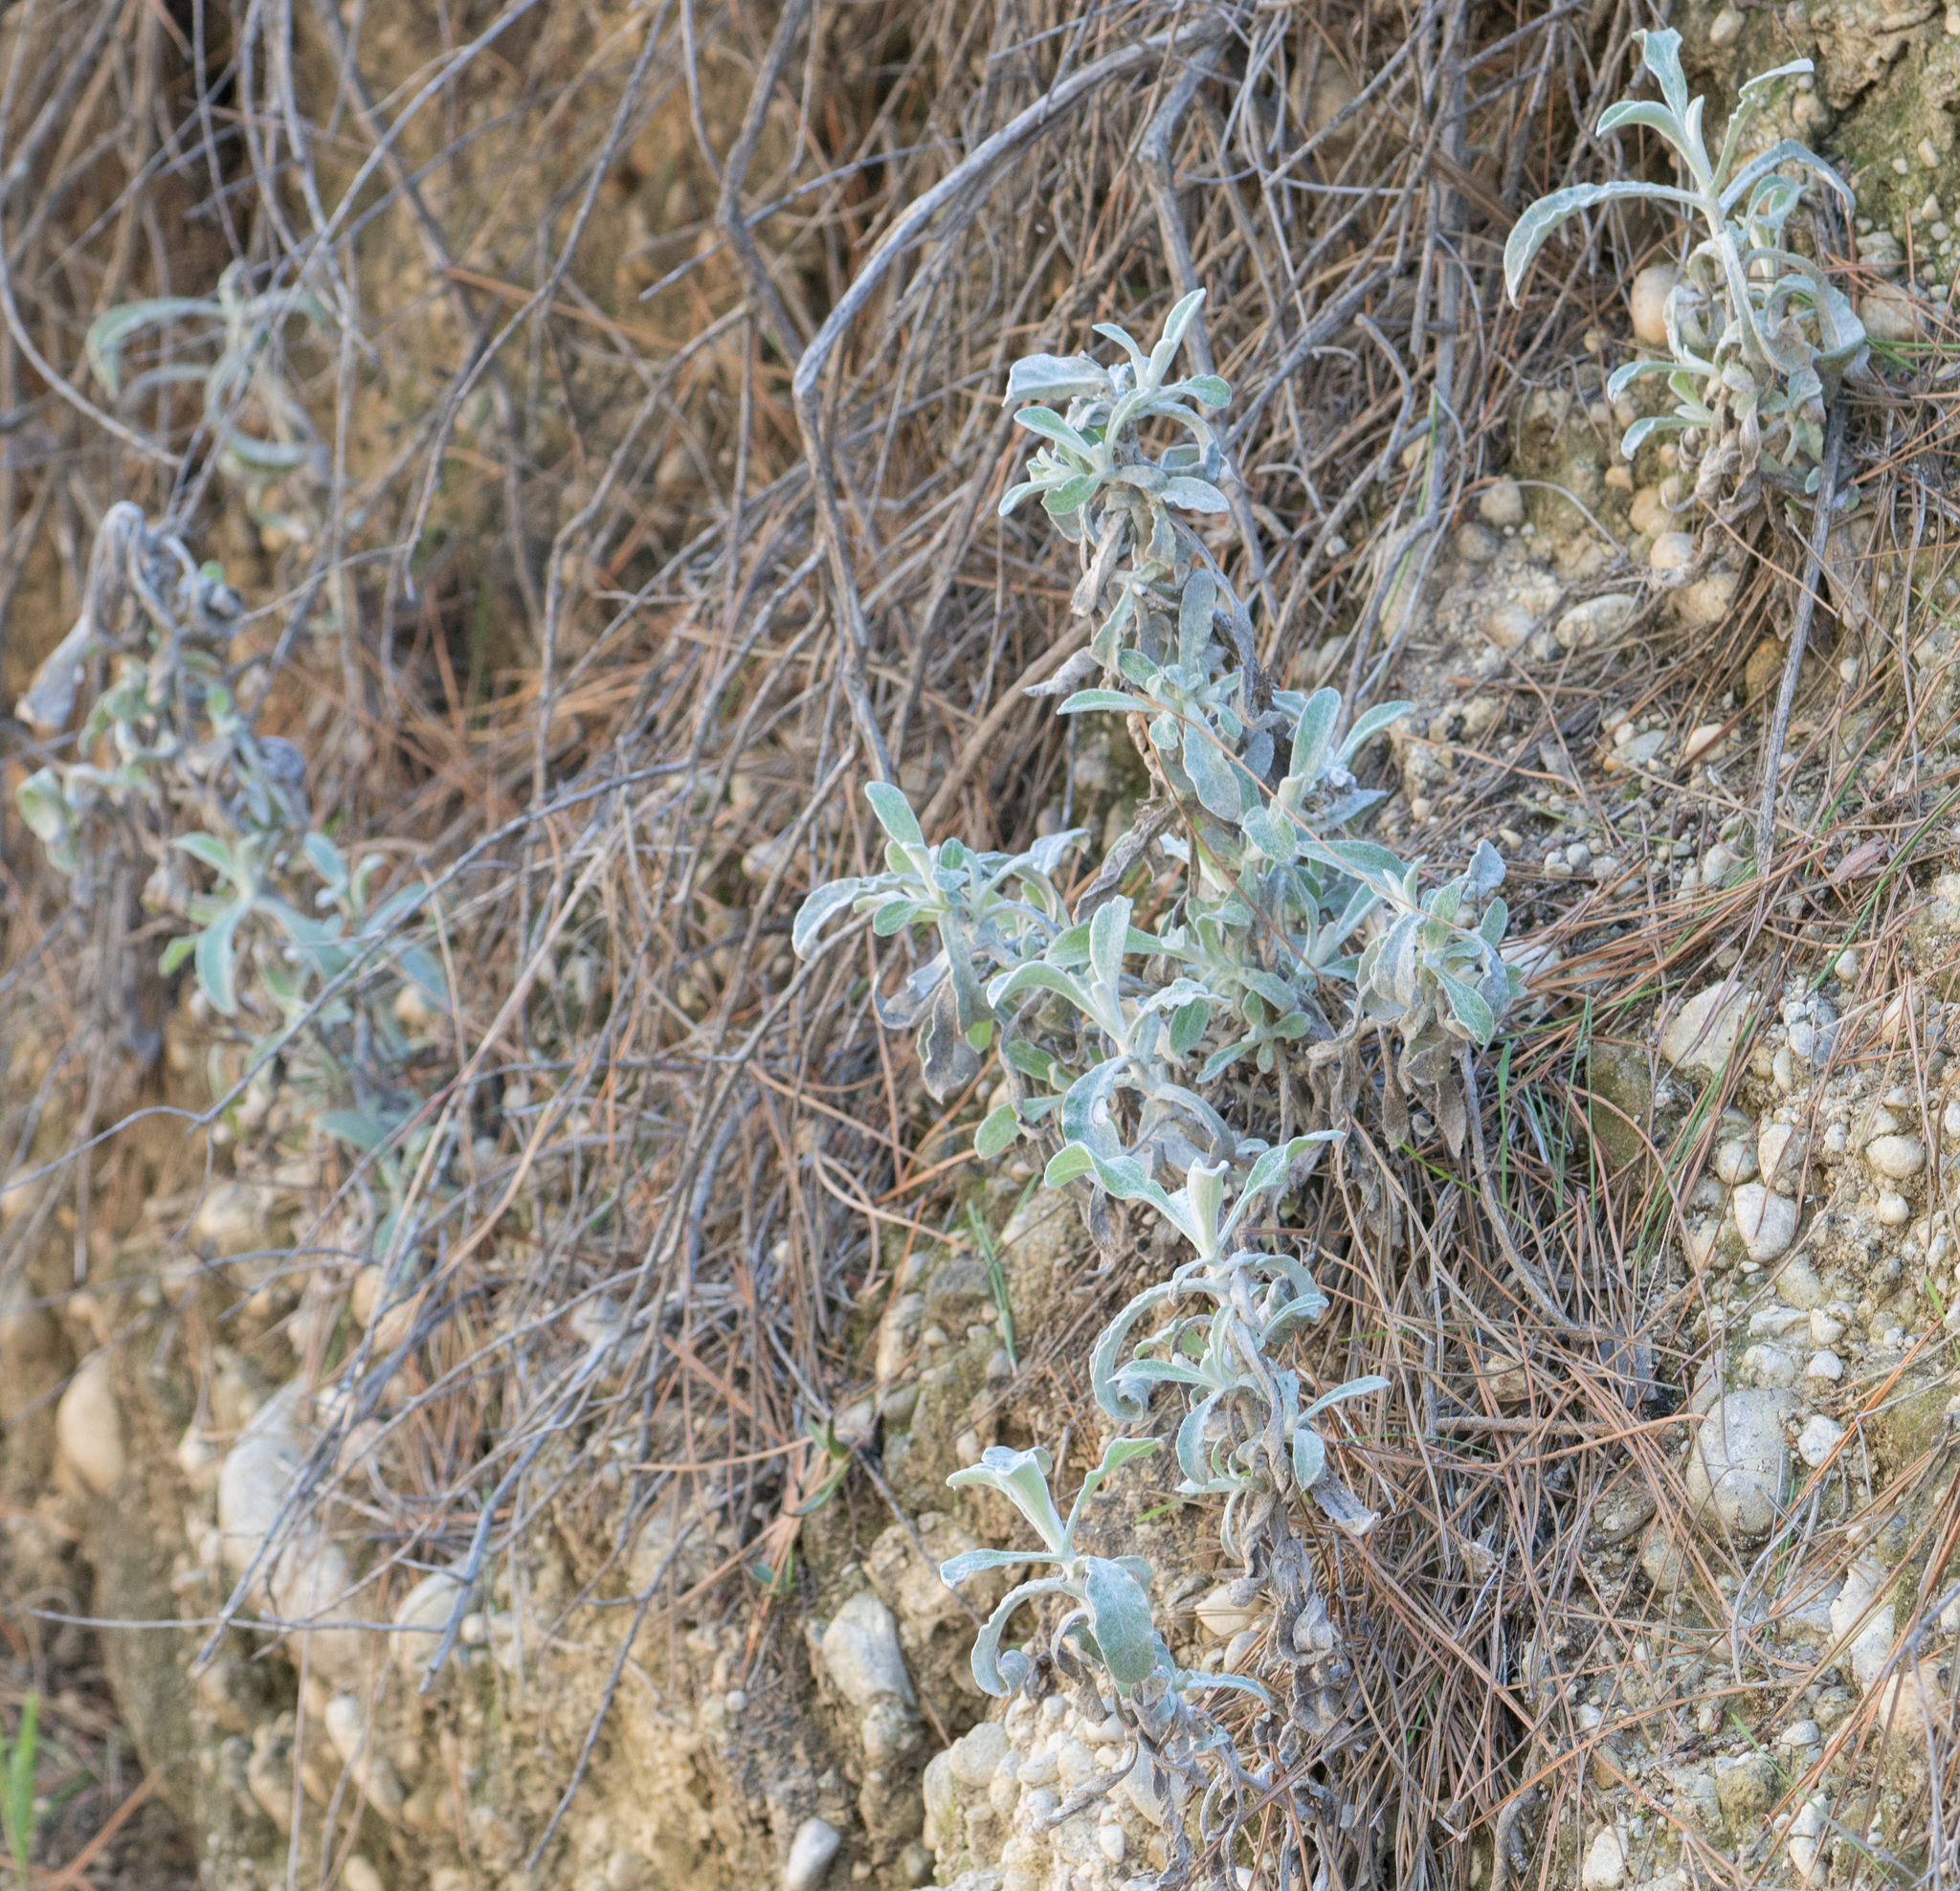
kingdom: Plantae
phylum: Tracheophyta
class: Magnoliopsida
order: Asterales
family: Asteraceae
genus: Pseudognaphalium
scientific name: Pseudognaphalium microcephalum
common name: San diego rabbit-tobacco
